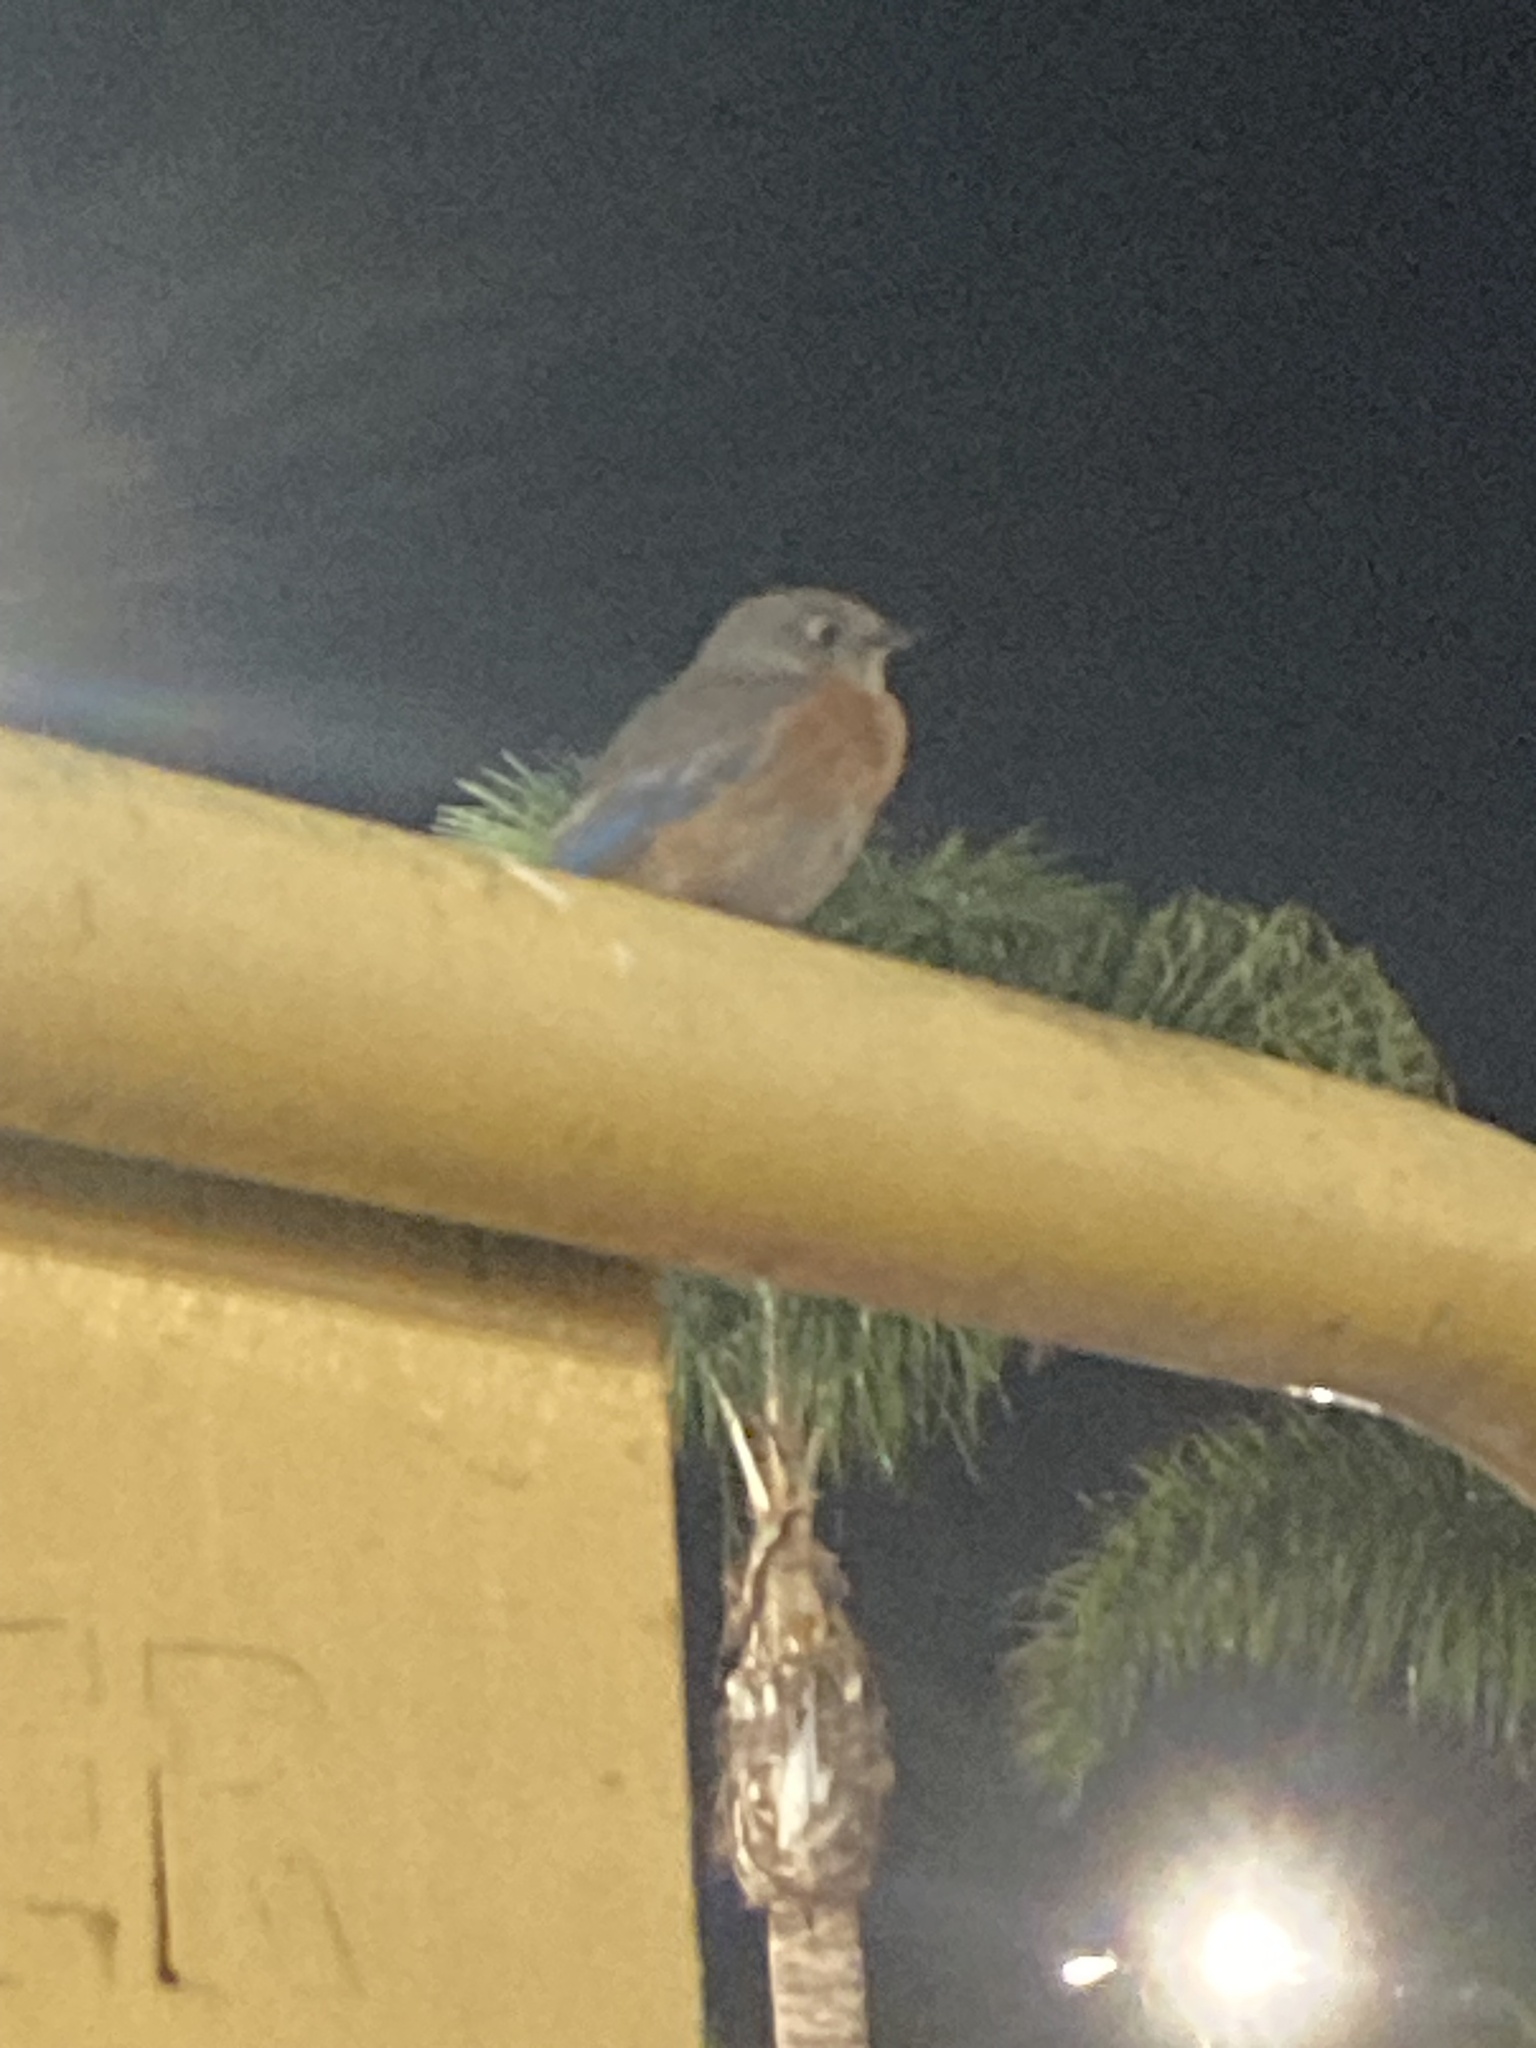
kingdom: Animalia
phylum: Chordata
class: Aves
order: Passeriformes
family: Turdidae
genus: Sialia
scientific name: Sialia mexicana
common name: Western bluebird
